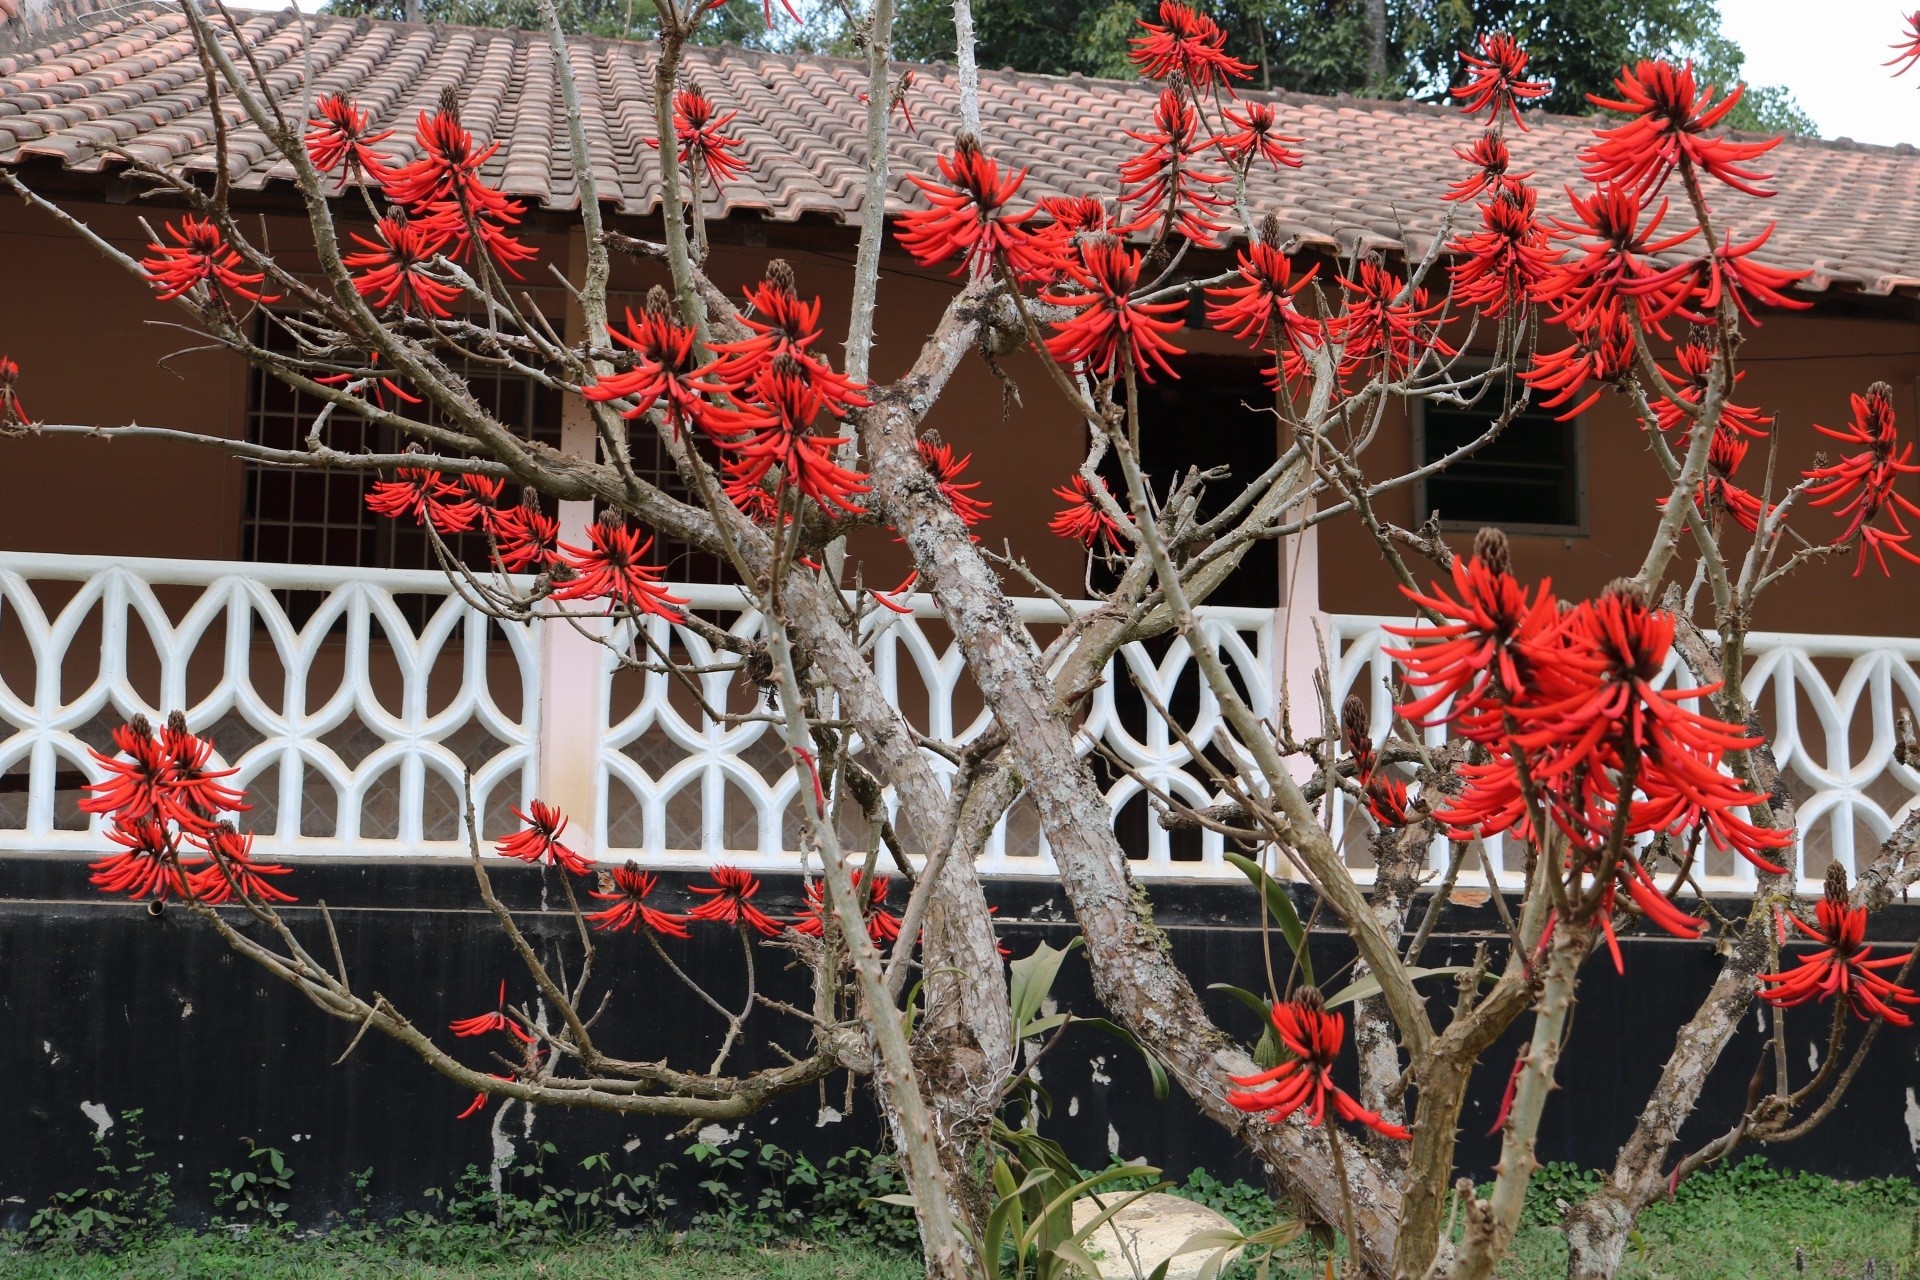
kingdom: Plantae
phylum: Tracheophyta
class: Magnoliopsida
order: Fabales
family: Fabaceae
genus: Erythrina
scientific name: Erythrina speciosa
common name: Coral tree
